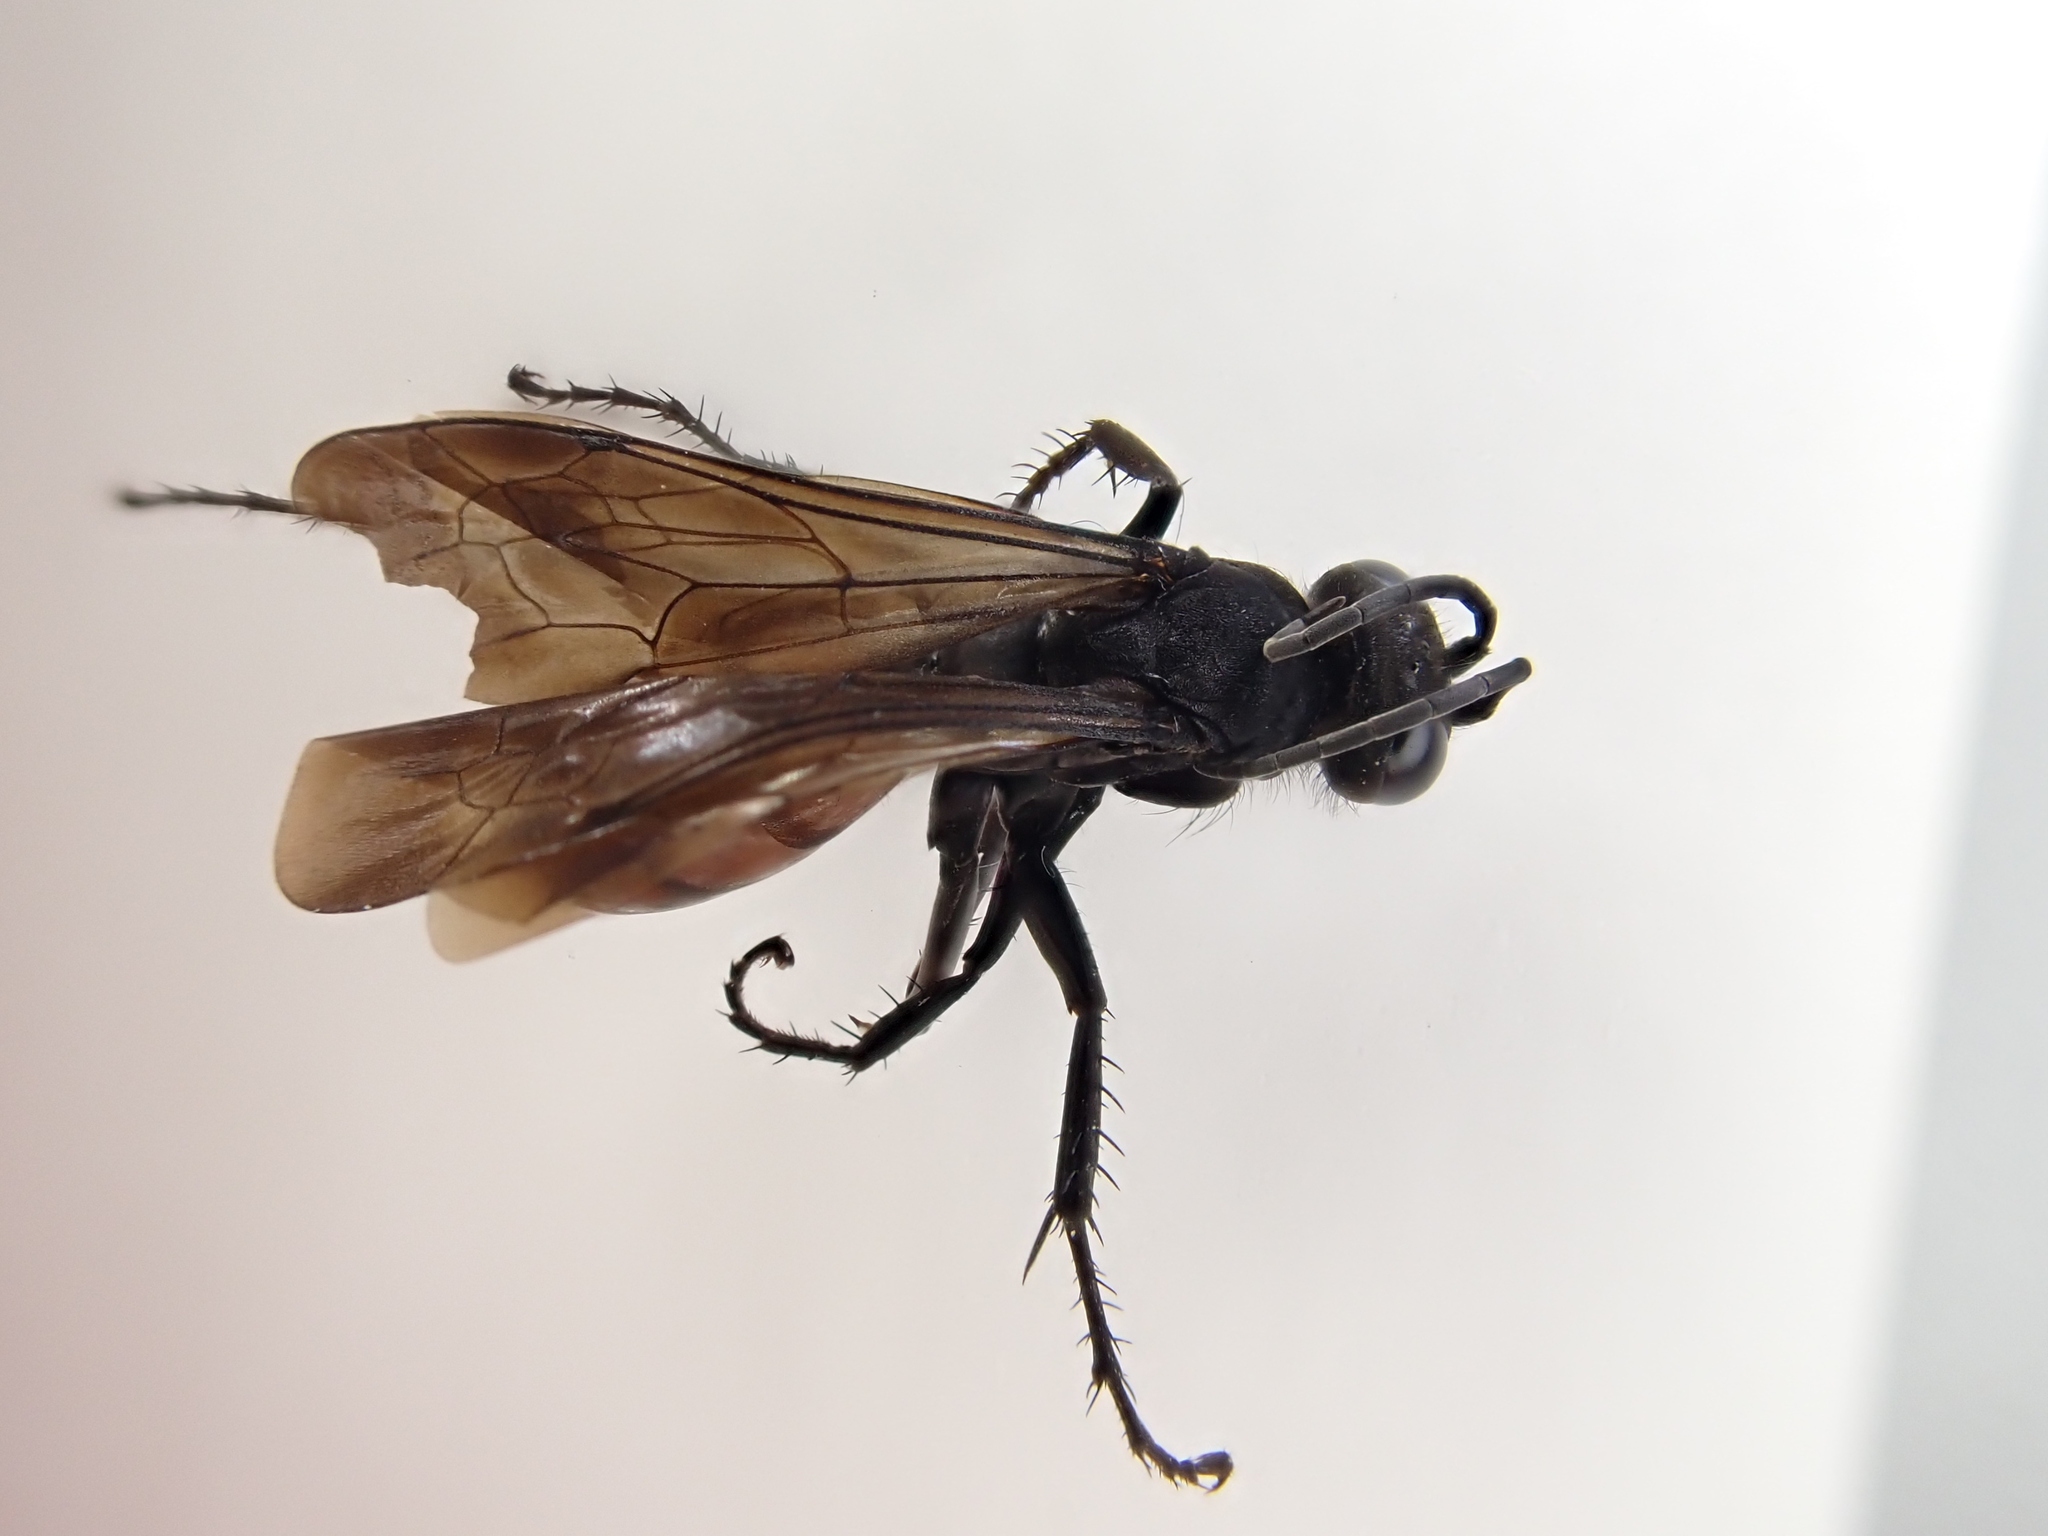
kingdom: Animalia
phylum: Arthropoda
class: Insecta
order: Hymenoptera
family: Pompilidae
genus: Anoplius
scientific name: Anoplius viaticus
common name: Black banded spider wasp
